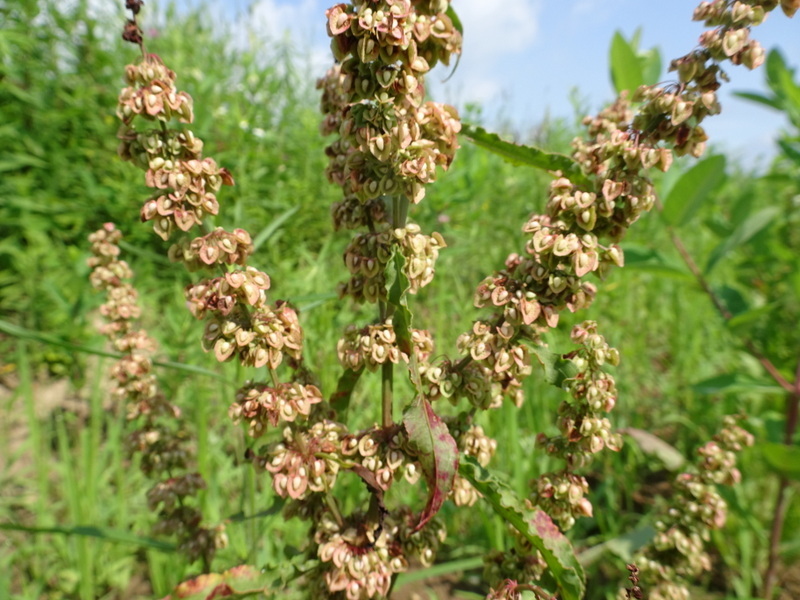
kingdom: Plantae
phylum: Tracheophyta
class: Magnoliopsida
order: Caryophyllales
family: Polygonaceae
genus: Rumex
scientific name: Rumex crispus
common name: Curled dock
